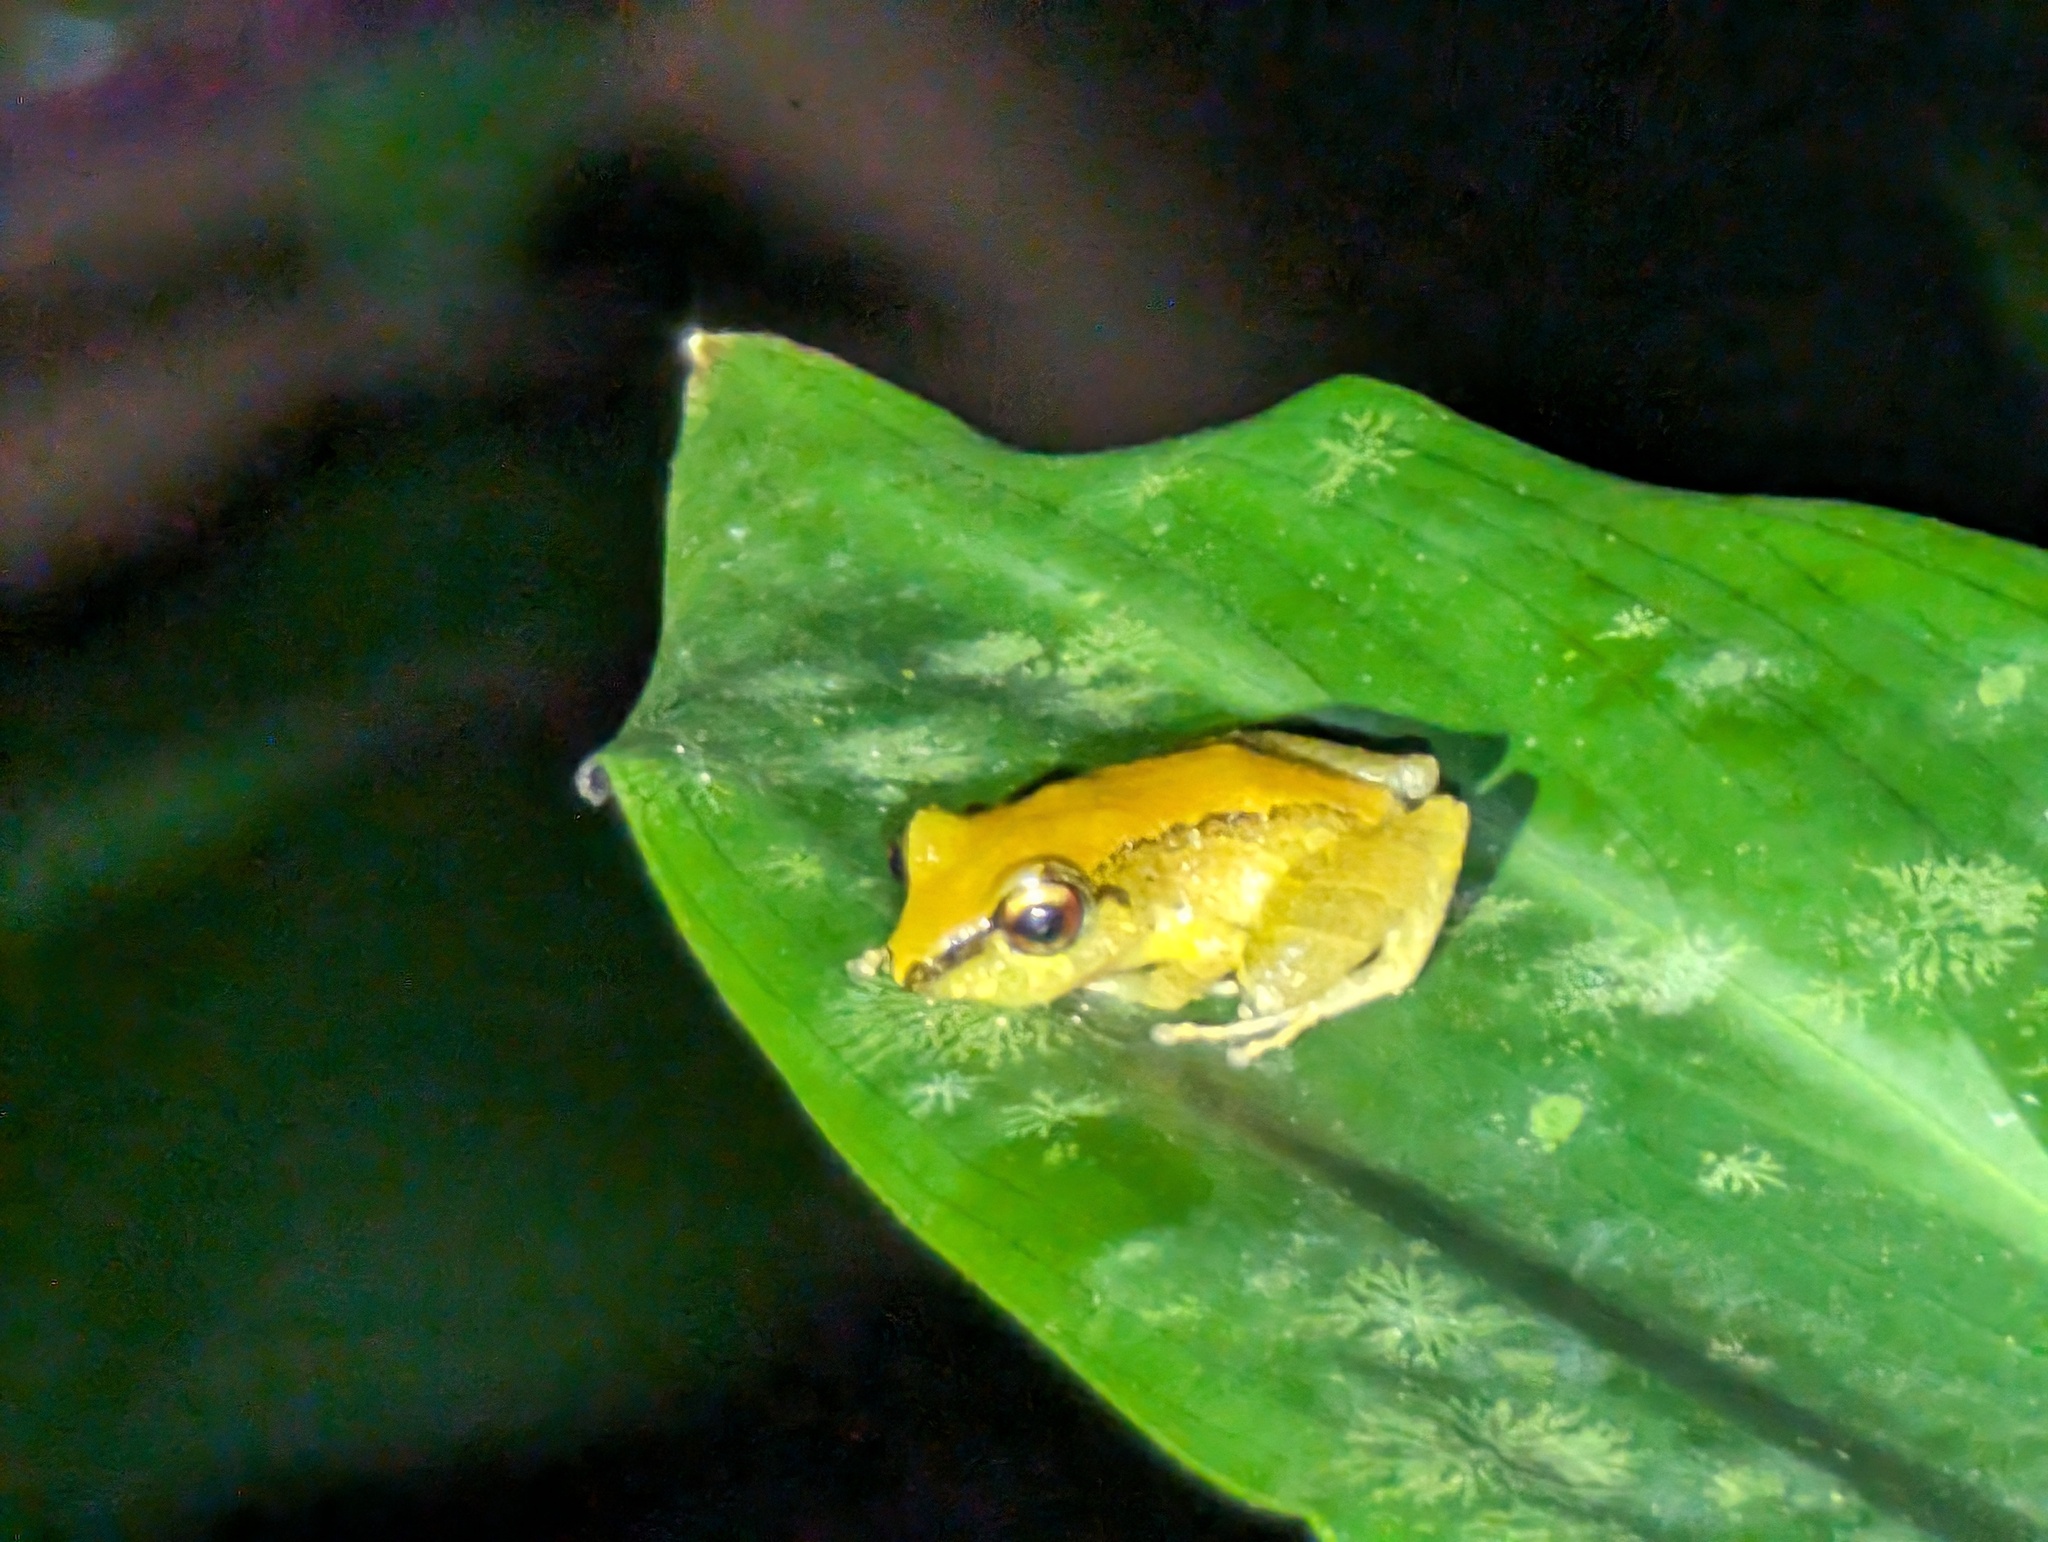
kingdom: Animalia
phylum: Chordata
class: Amphibia
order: Anura
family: Craugastoridae
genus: Pristimantis
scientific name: Pristimantis ridens
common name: Rio san juan robber frog
